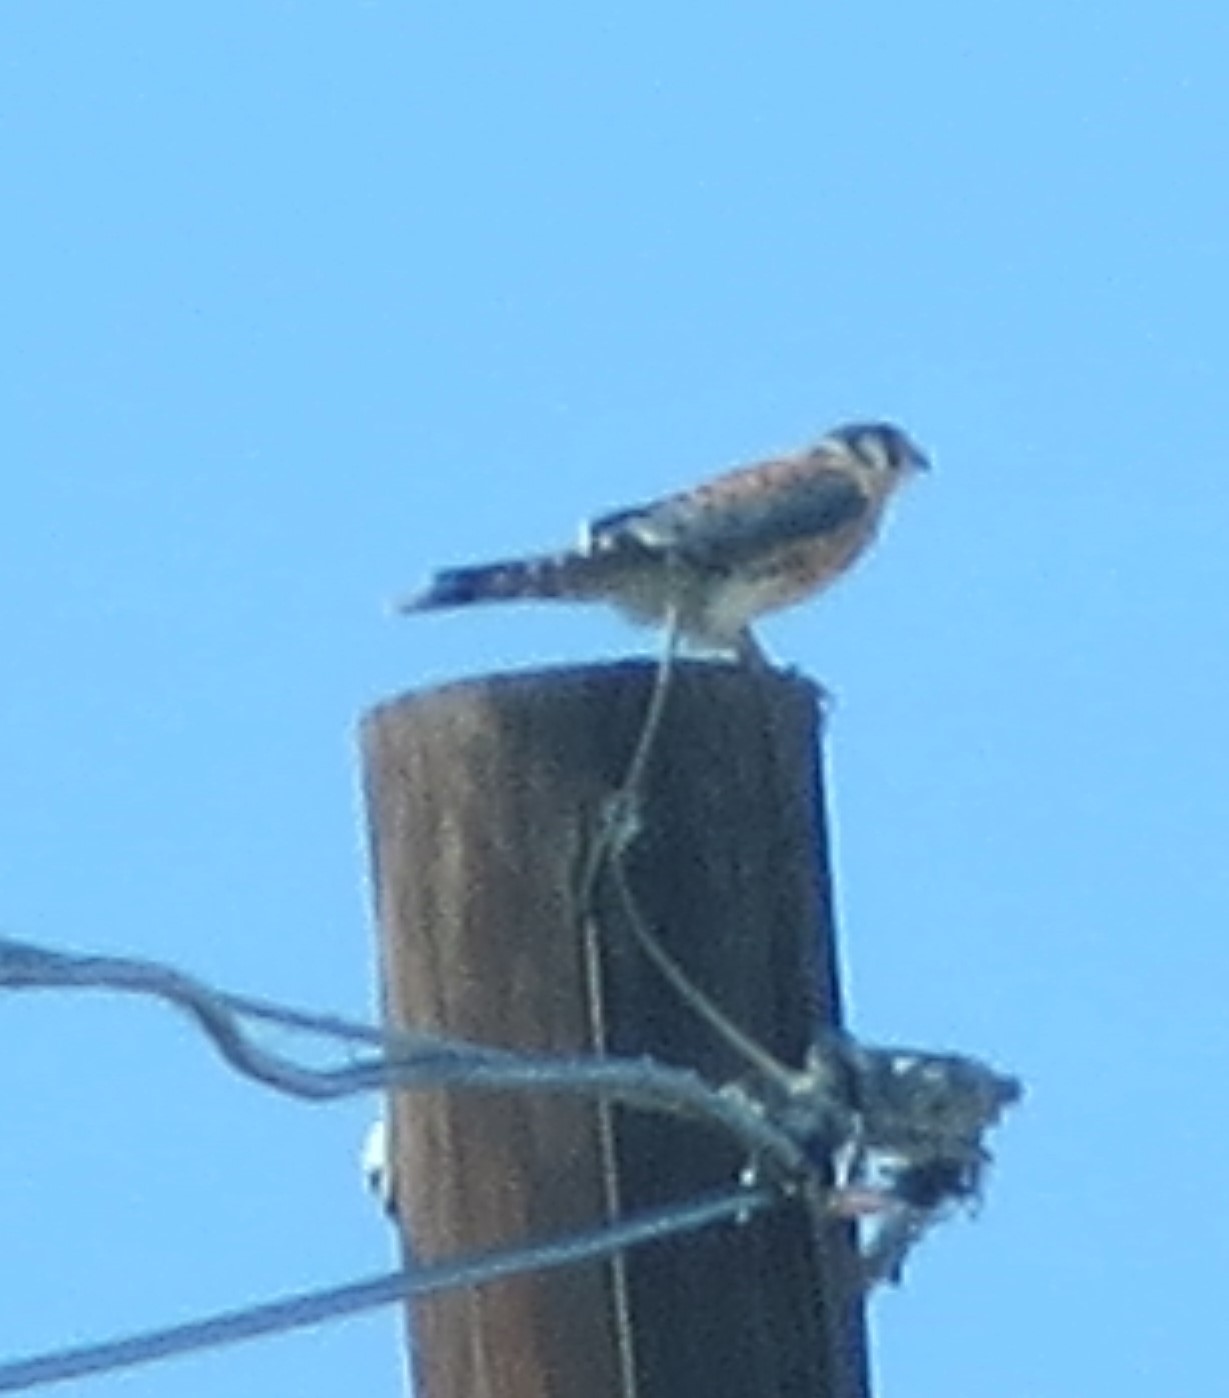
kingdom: Animalia
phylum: Chordata
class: Aves
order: Falconiformes
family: Falconidae
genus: Falco
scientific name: Falco sparverius
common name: American kestrel
